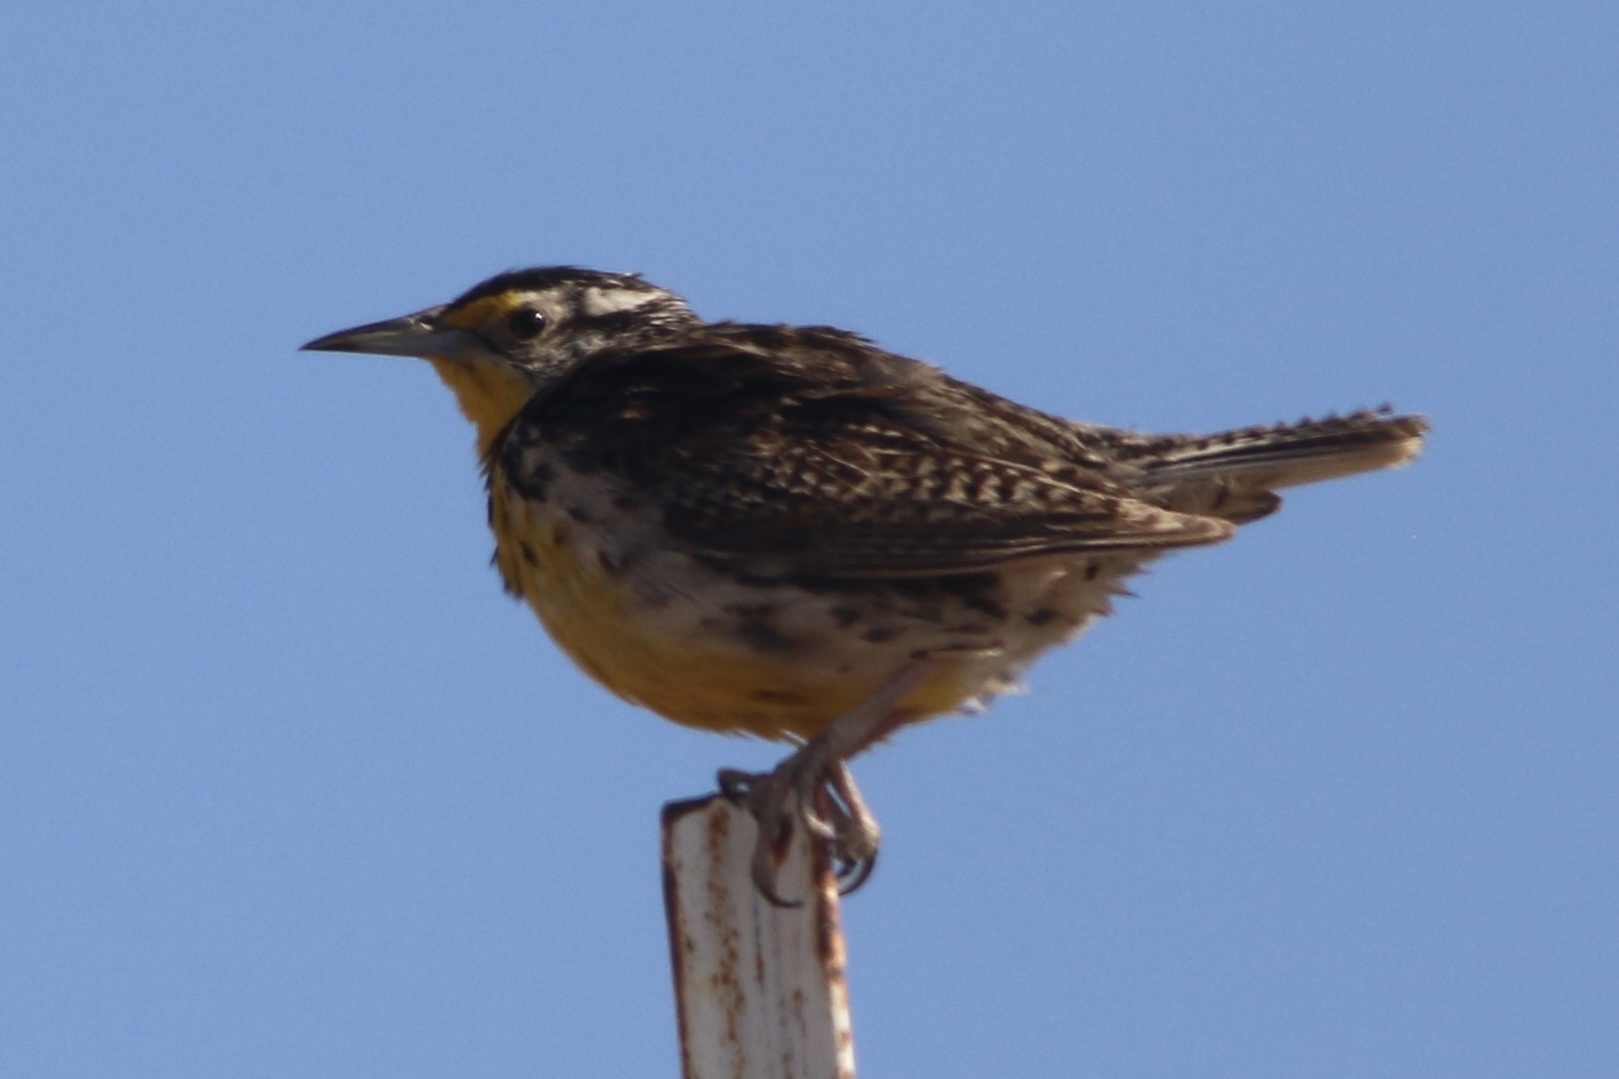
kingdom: Animalia
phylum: Chordata
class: Aves
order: Passeriformes
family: Icteridae
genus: Sturnella
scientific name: Sturnella neglecta
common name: Western meadowlark
